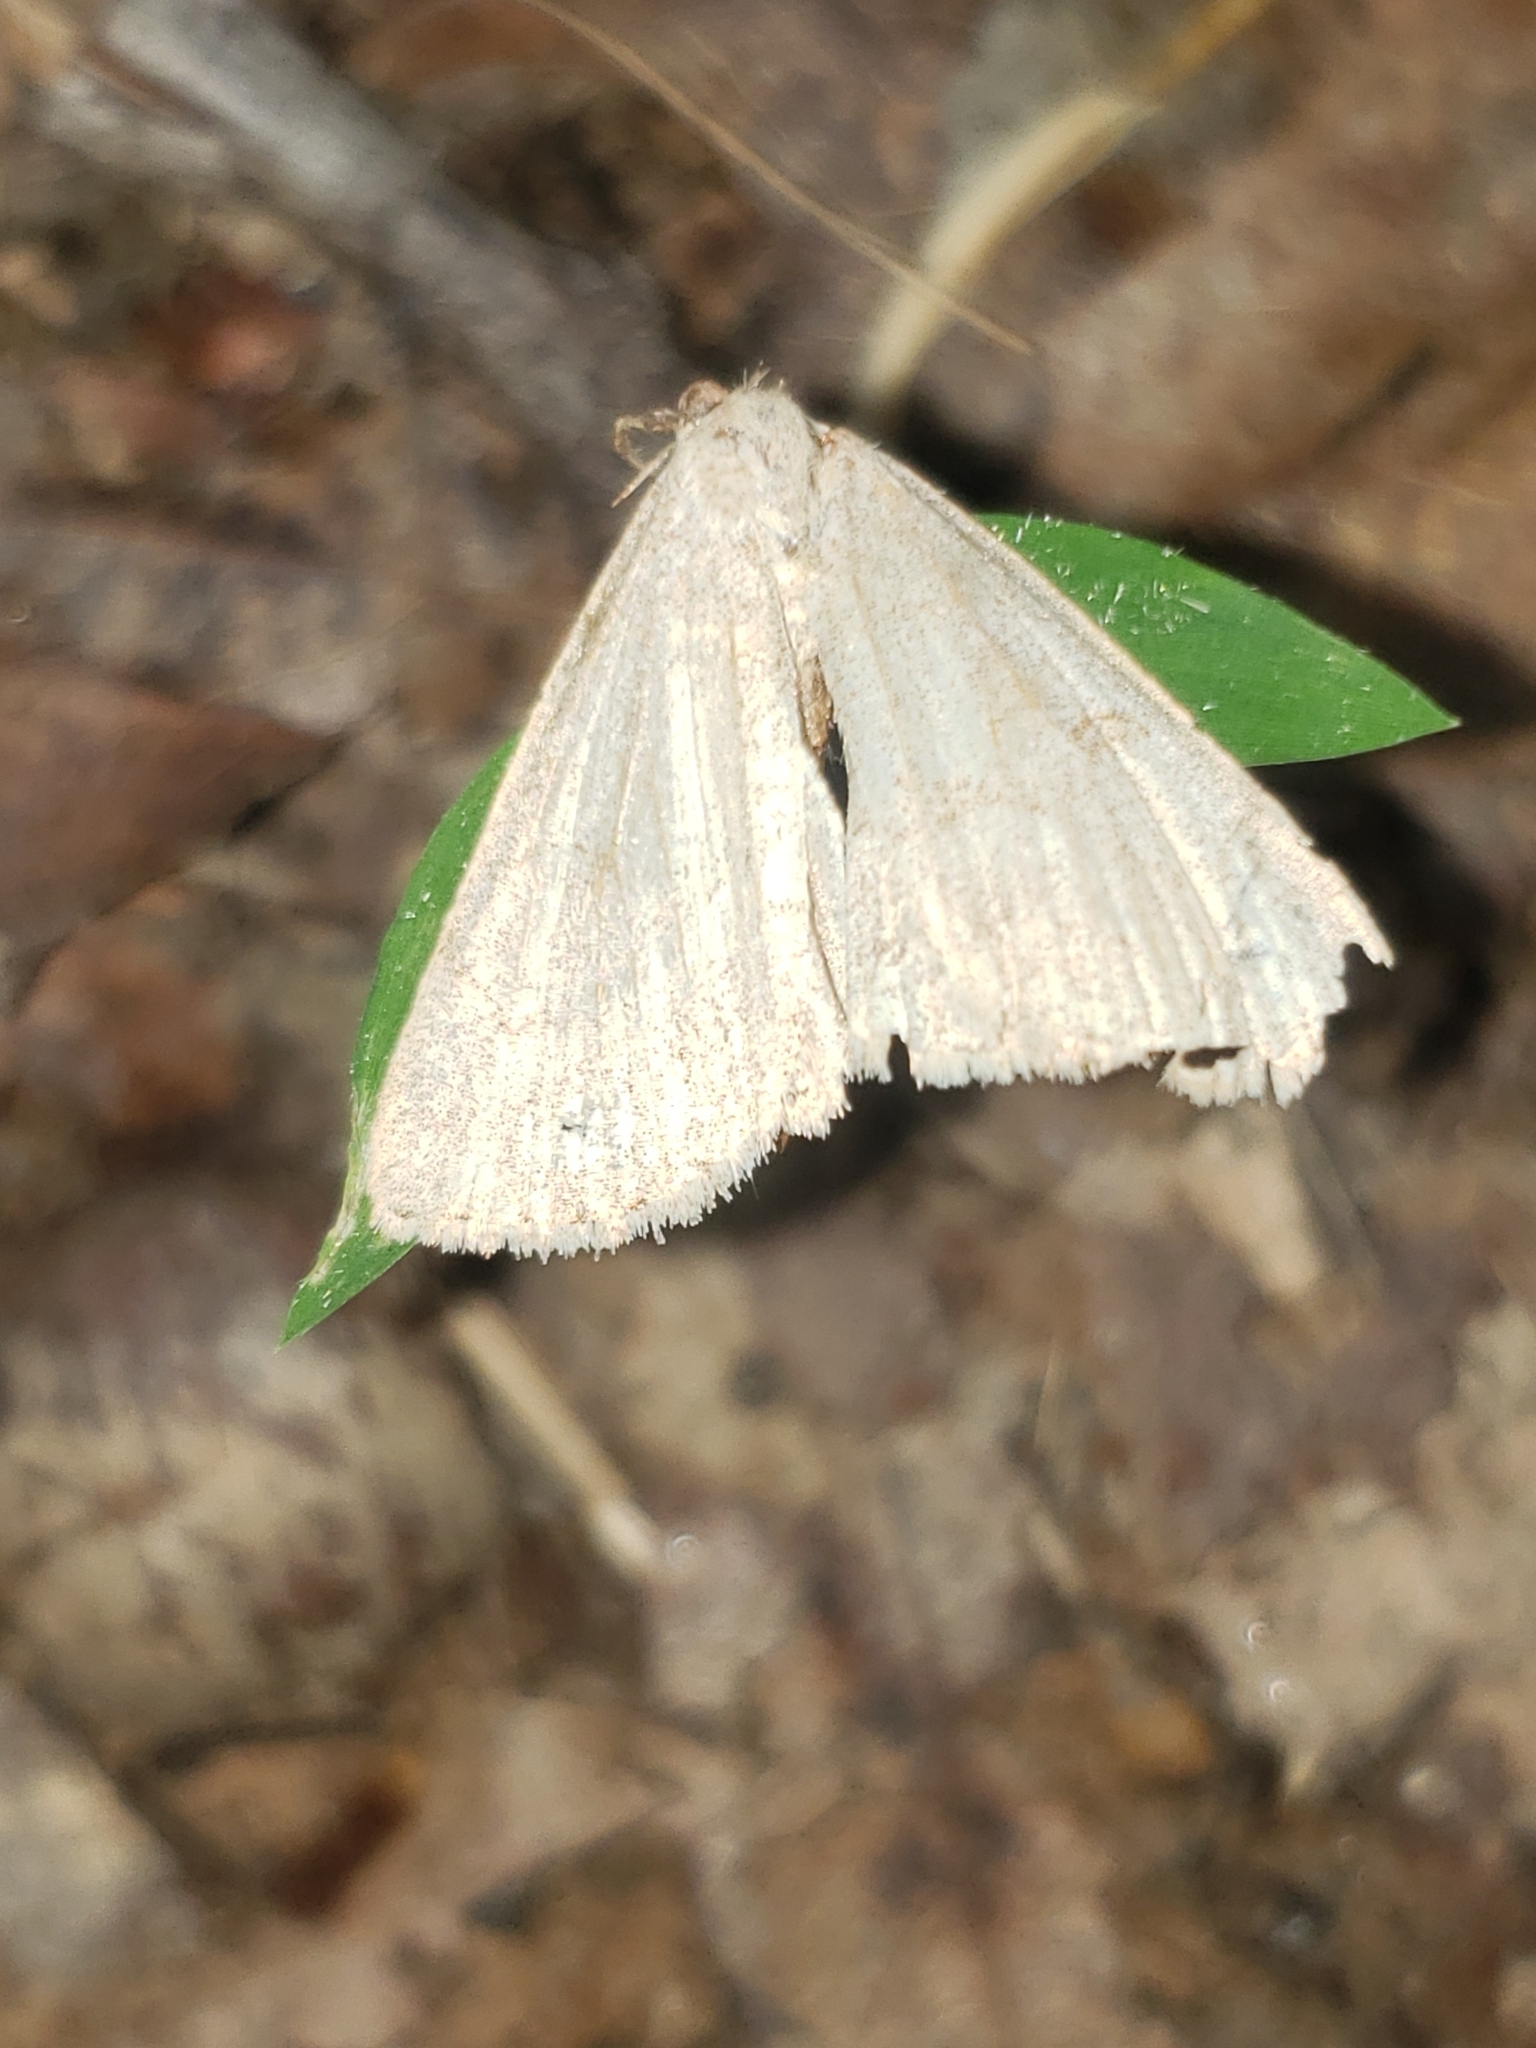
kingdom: Animalia
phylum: Arthropoda
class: Insecta
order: Lepidoptera
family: Erebidae
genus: Macrochilo
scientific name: Macrochilo morbidalis
